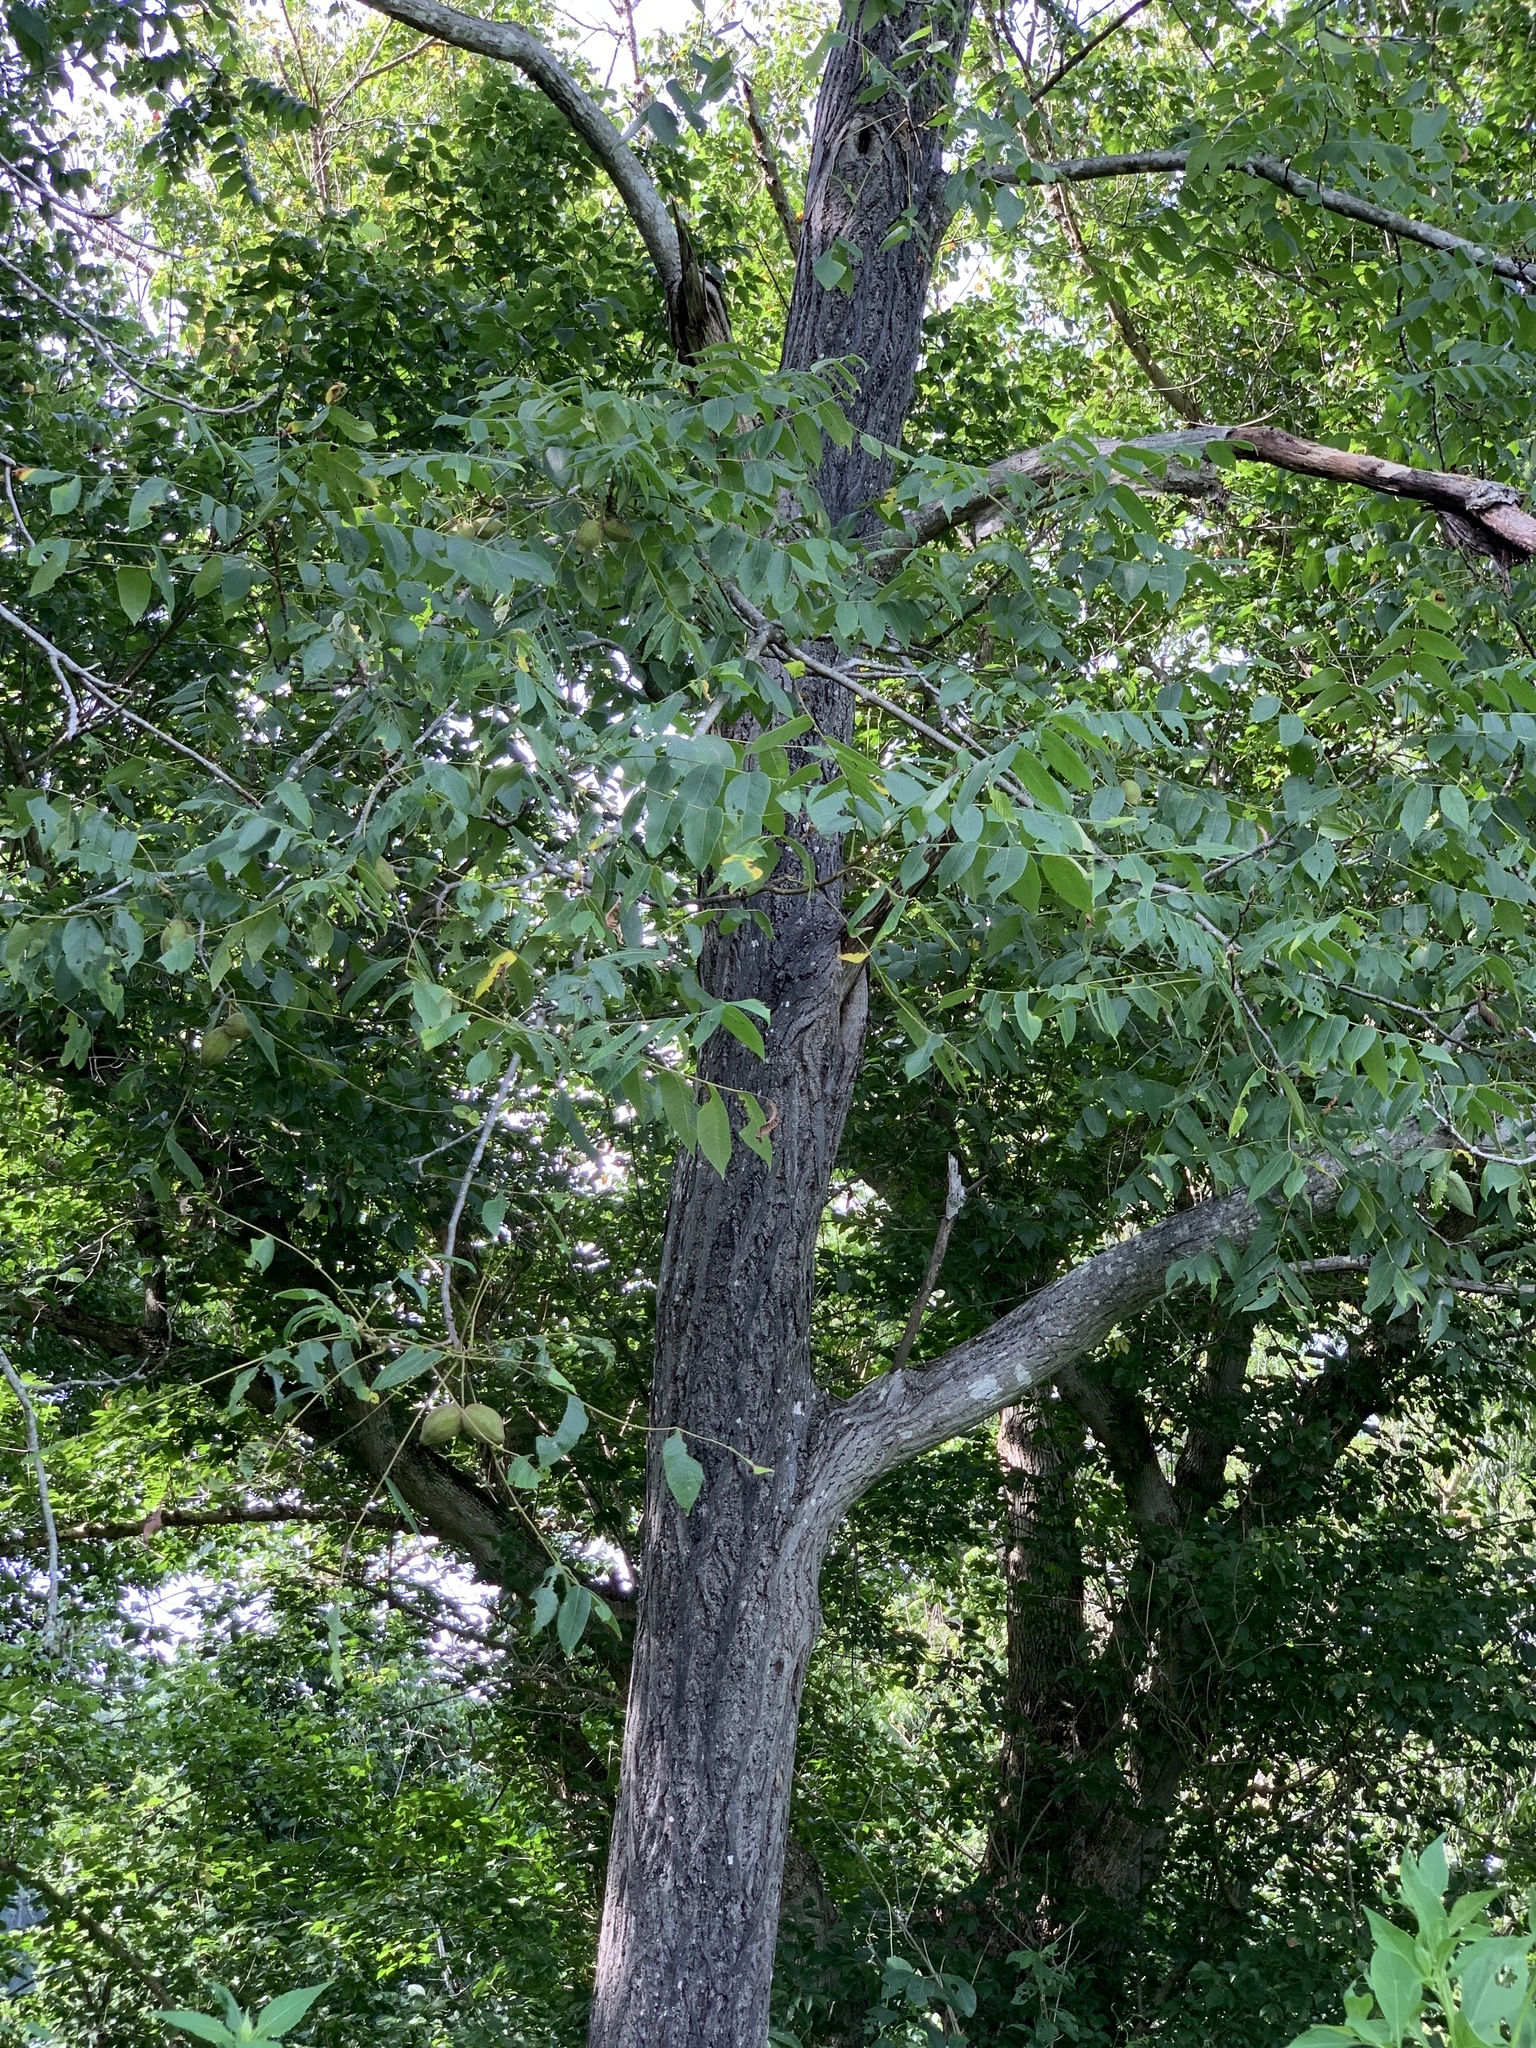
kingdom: Plantae
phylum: Tracheophyta
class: Magnoliopsida
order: Fagales
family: Juglandaceae
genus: Juglans
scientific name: Juglans cinerea
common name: Butternut
